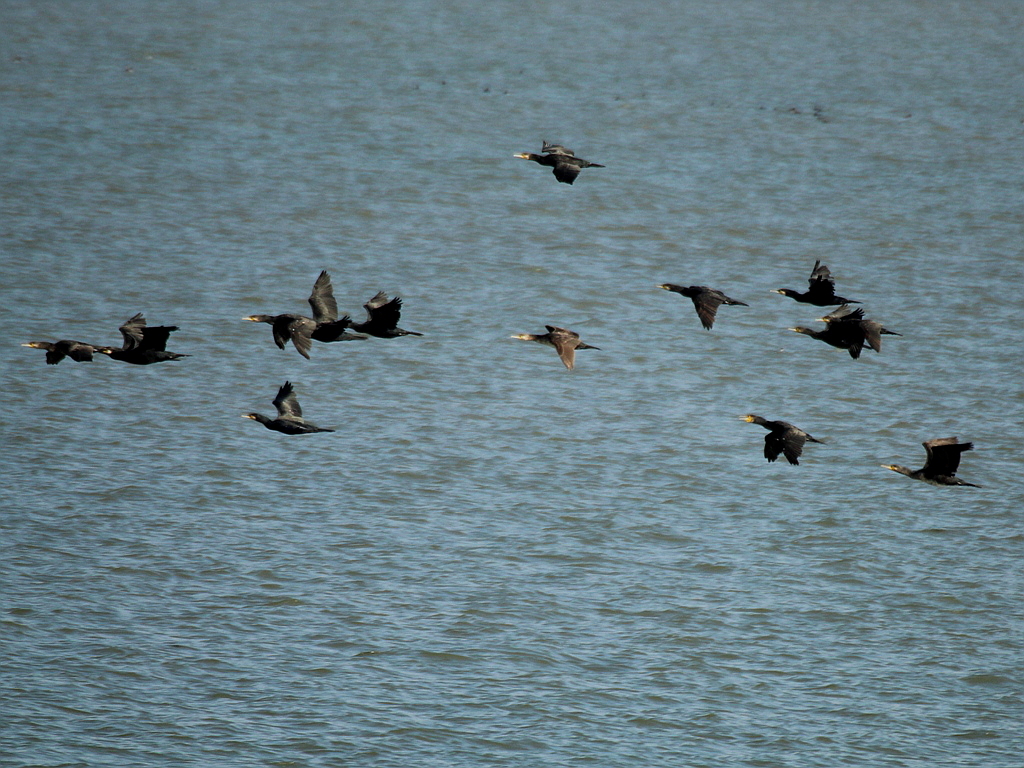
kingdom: Animalia
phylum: Chordata
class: Aves
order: Suliformes
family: Phalacrocoracidae
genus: Phalacrocorax
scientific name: Phalacrocorax carbo
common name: Great cormorant
